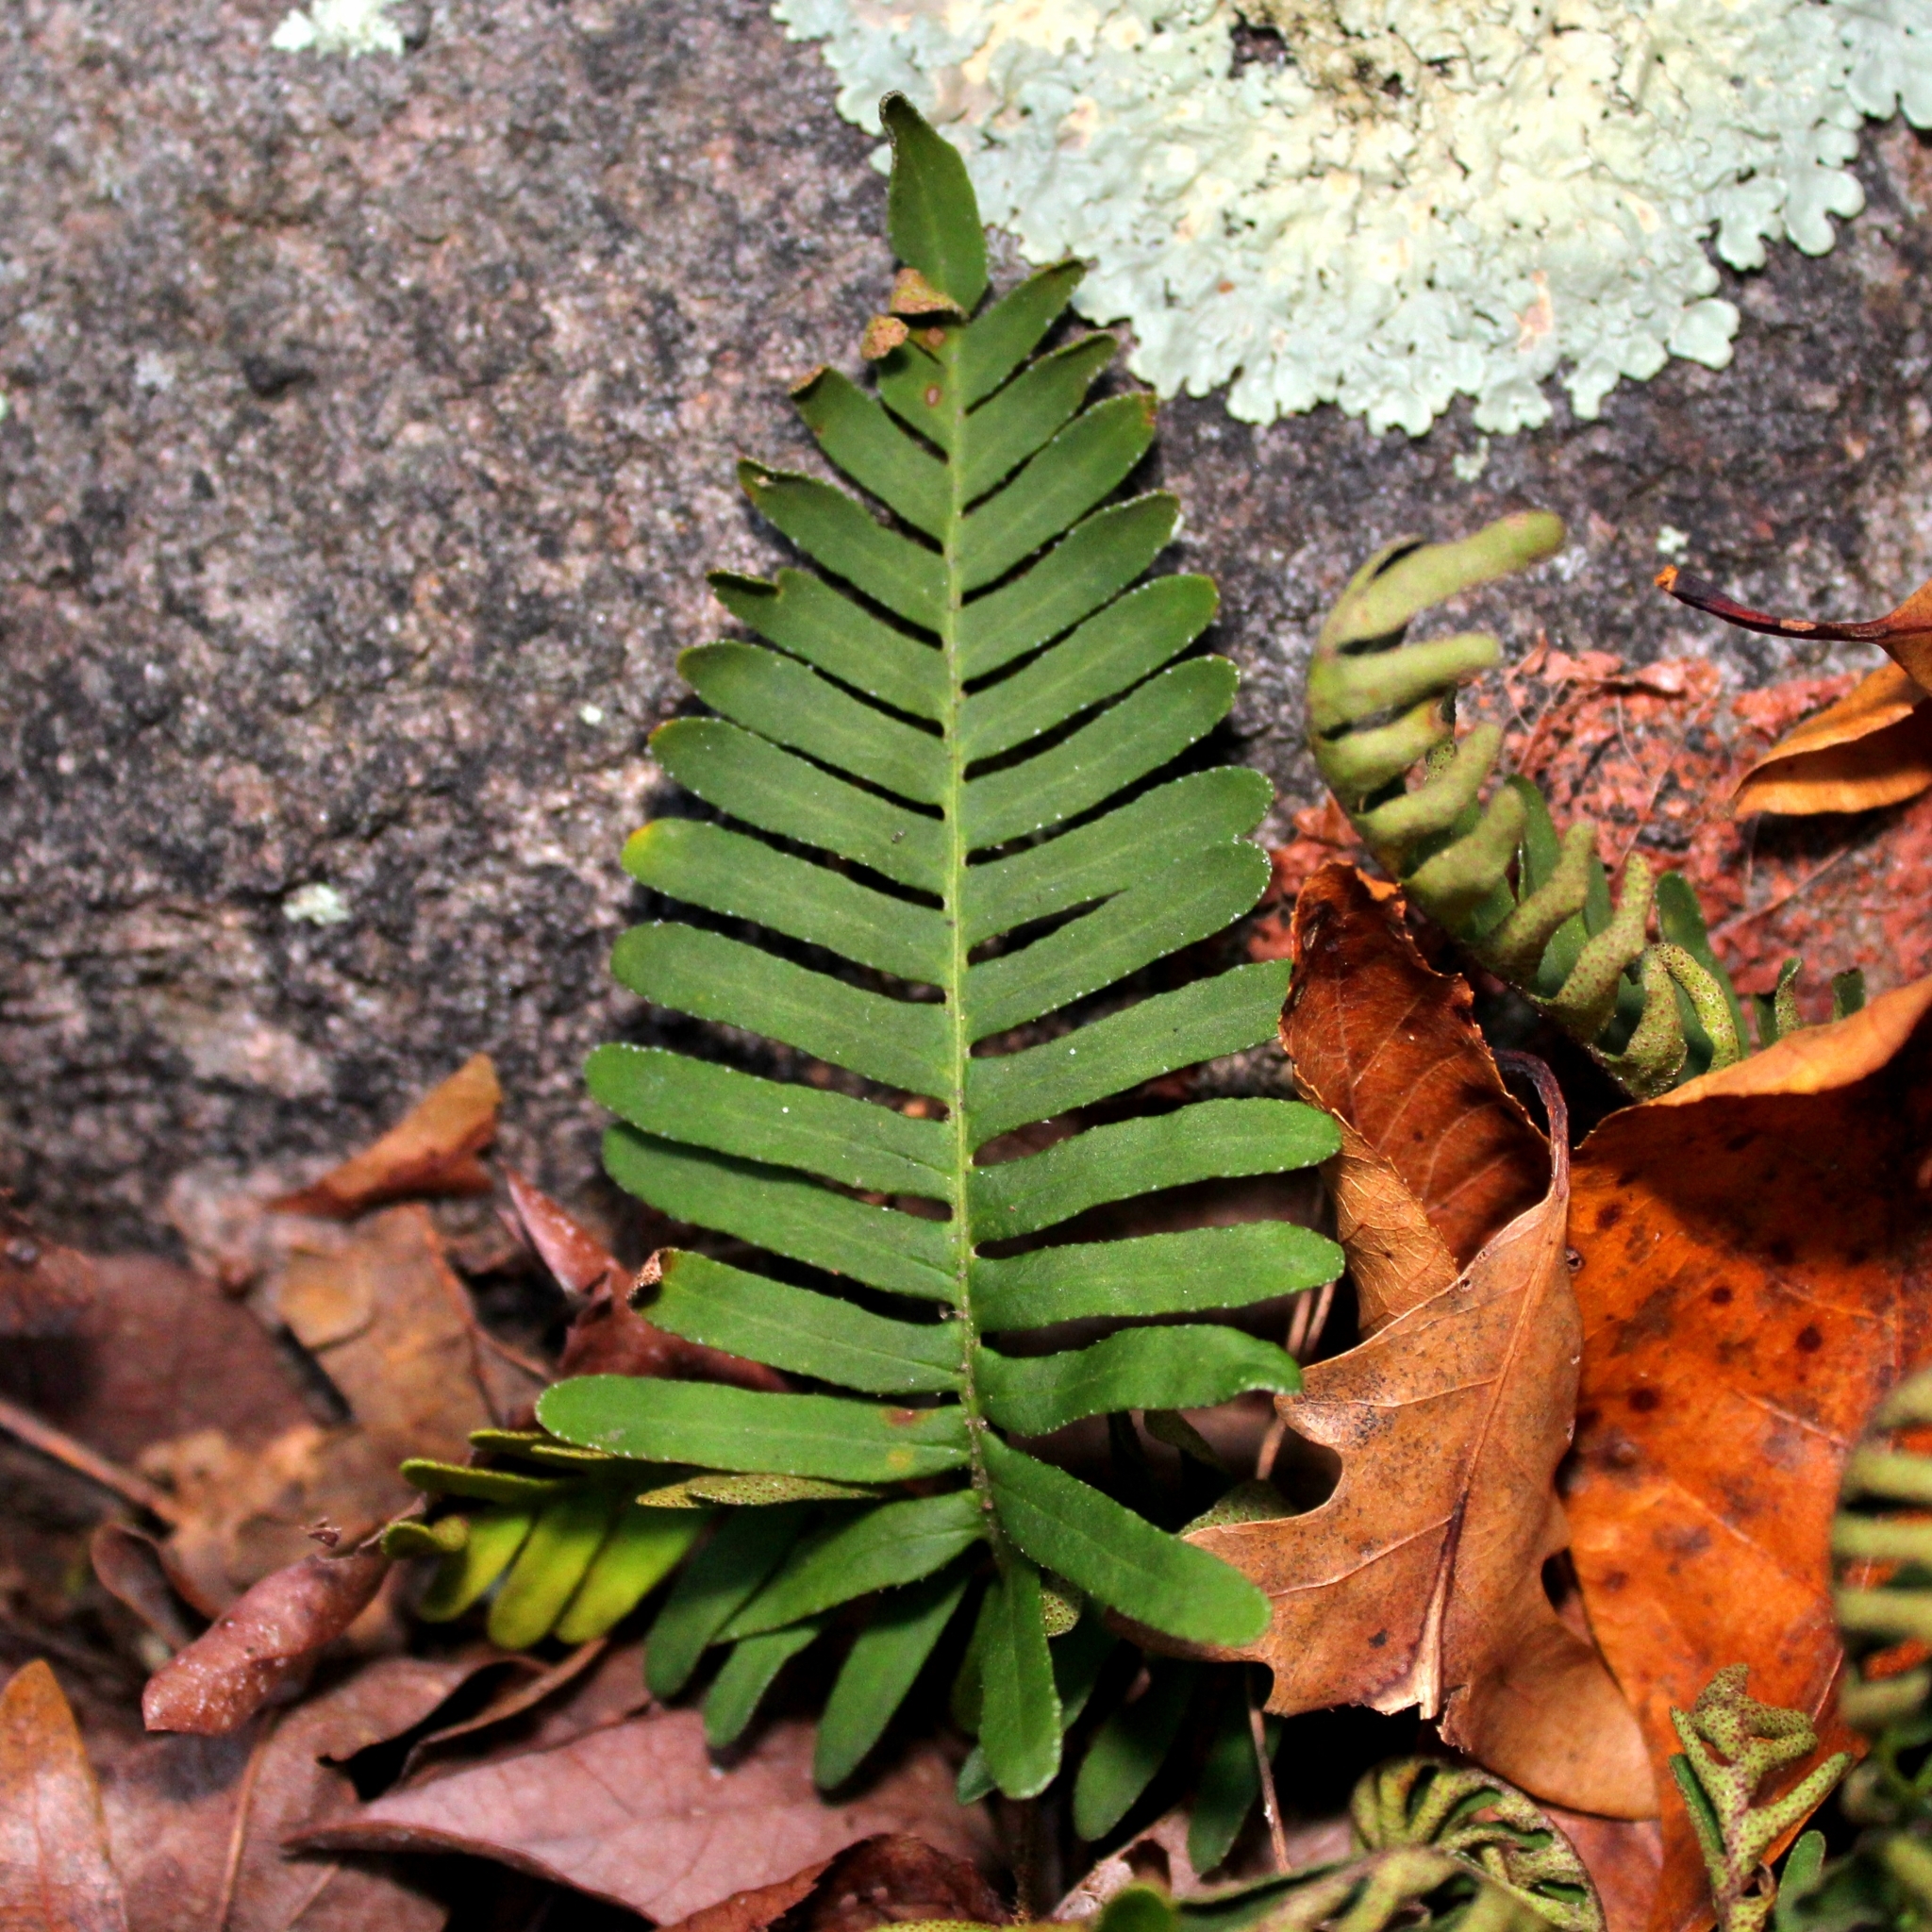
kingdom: Plantae
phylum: Tracheophyta
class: Polypodiopsida
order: Polypodiales
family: Polypodiaceae
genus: Pleopeltis
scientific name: Pleopeltis michauxiana
